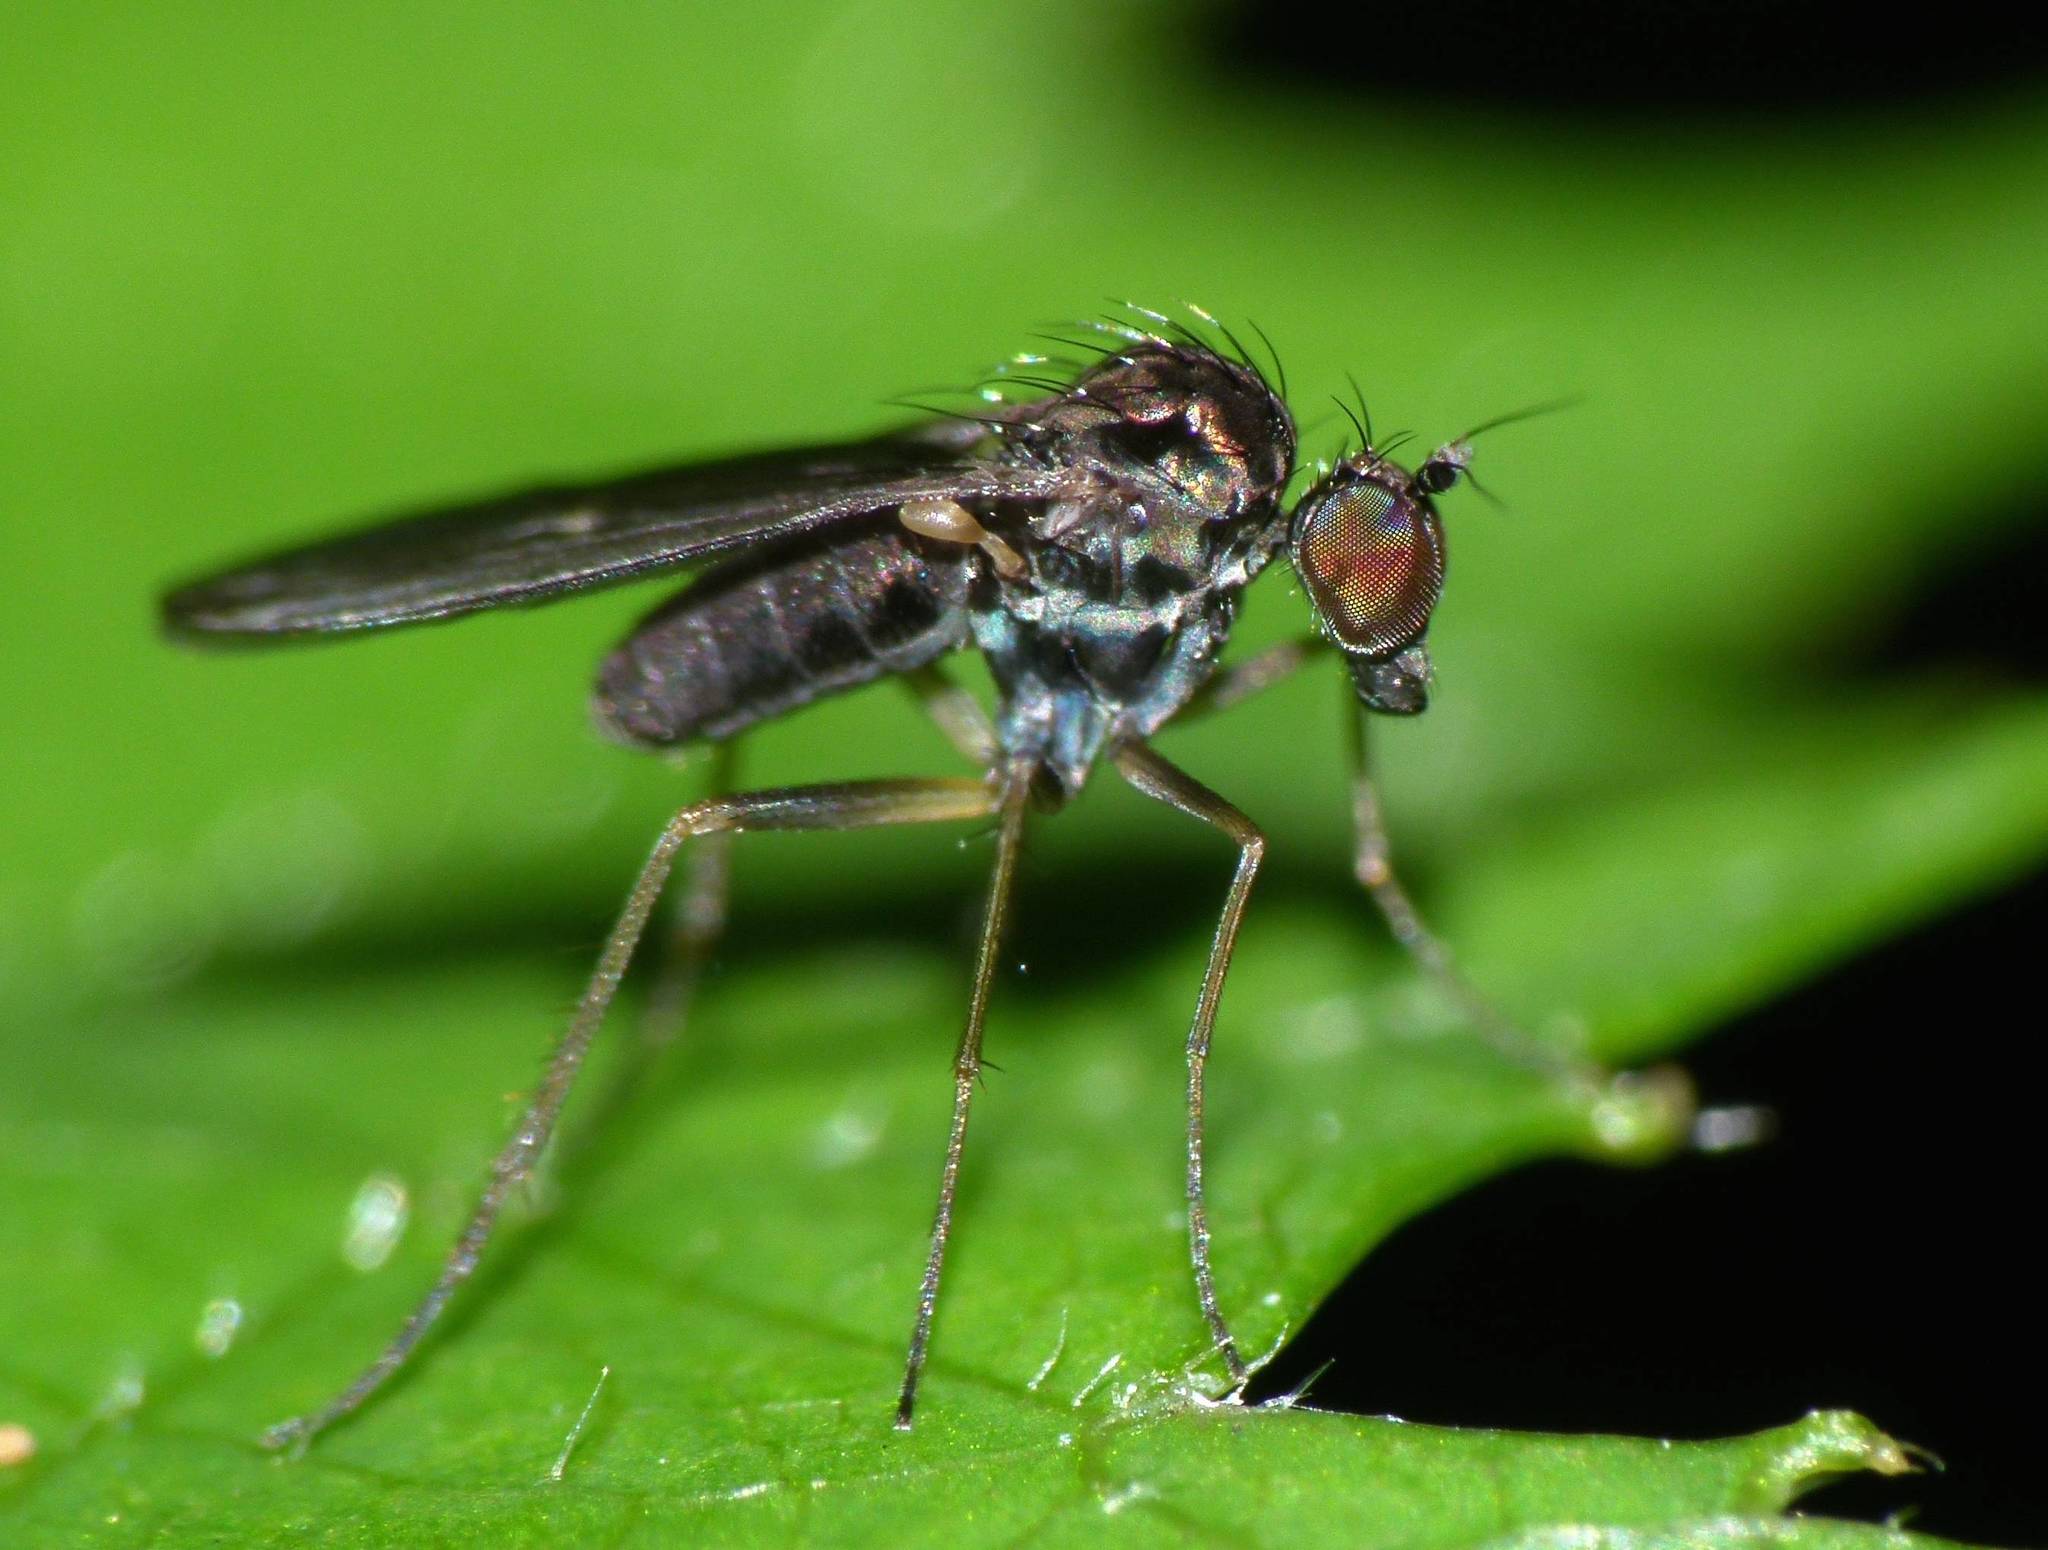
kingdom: Animalia
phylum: Arthropoda
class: Insecta
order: Diptera
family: Dolichopodidae
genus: Micropygus
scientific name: Micropygus vagans
